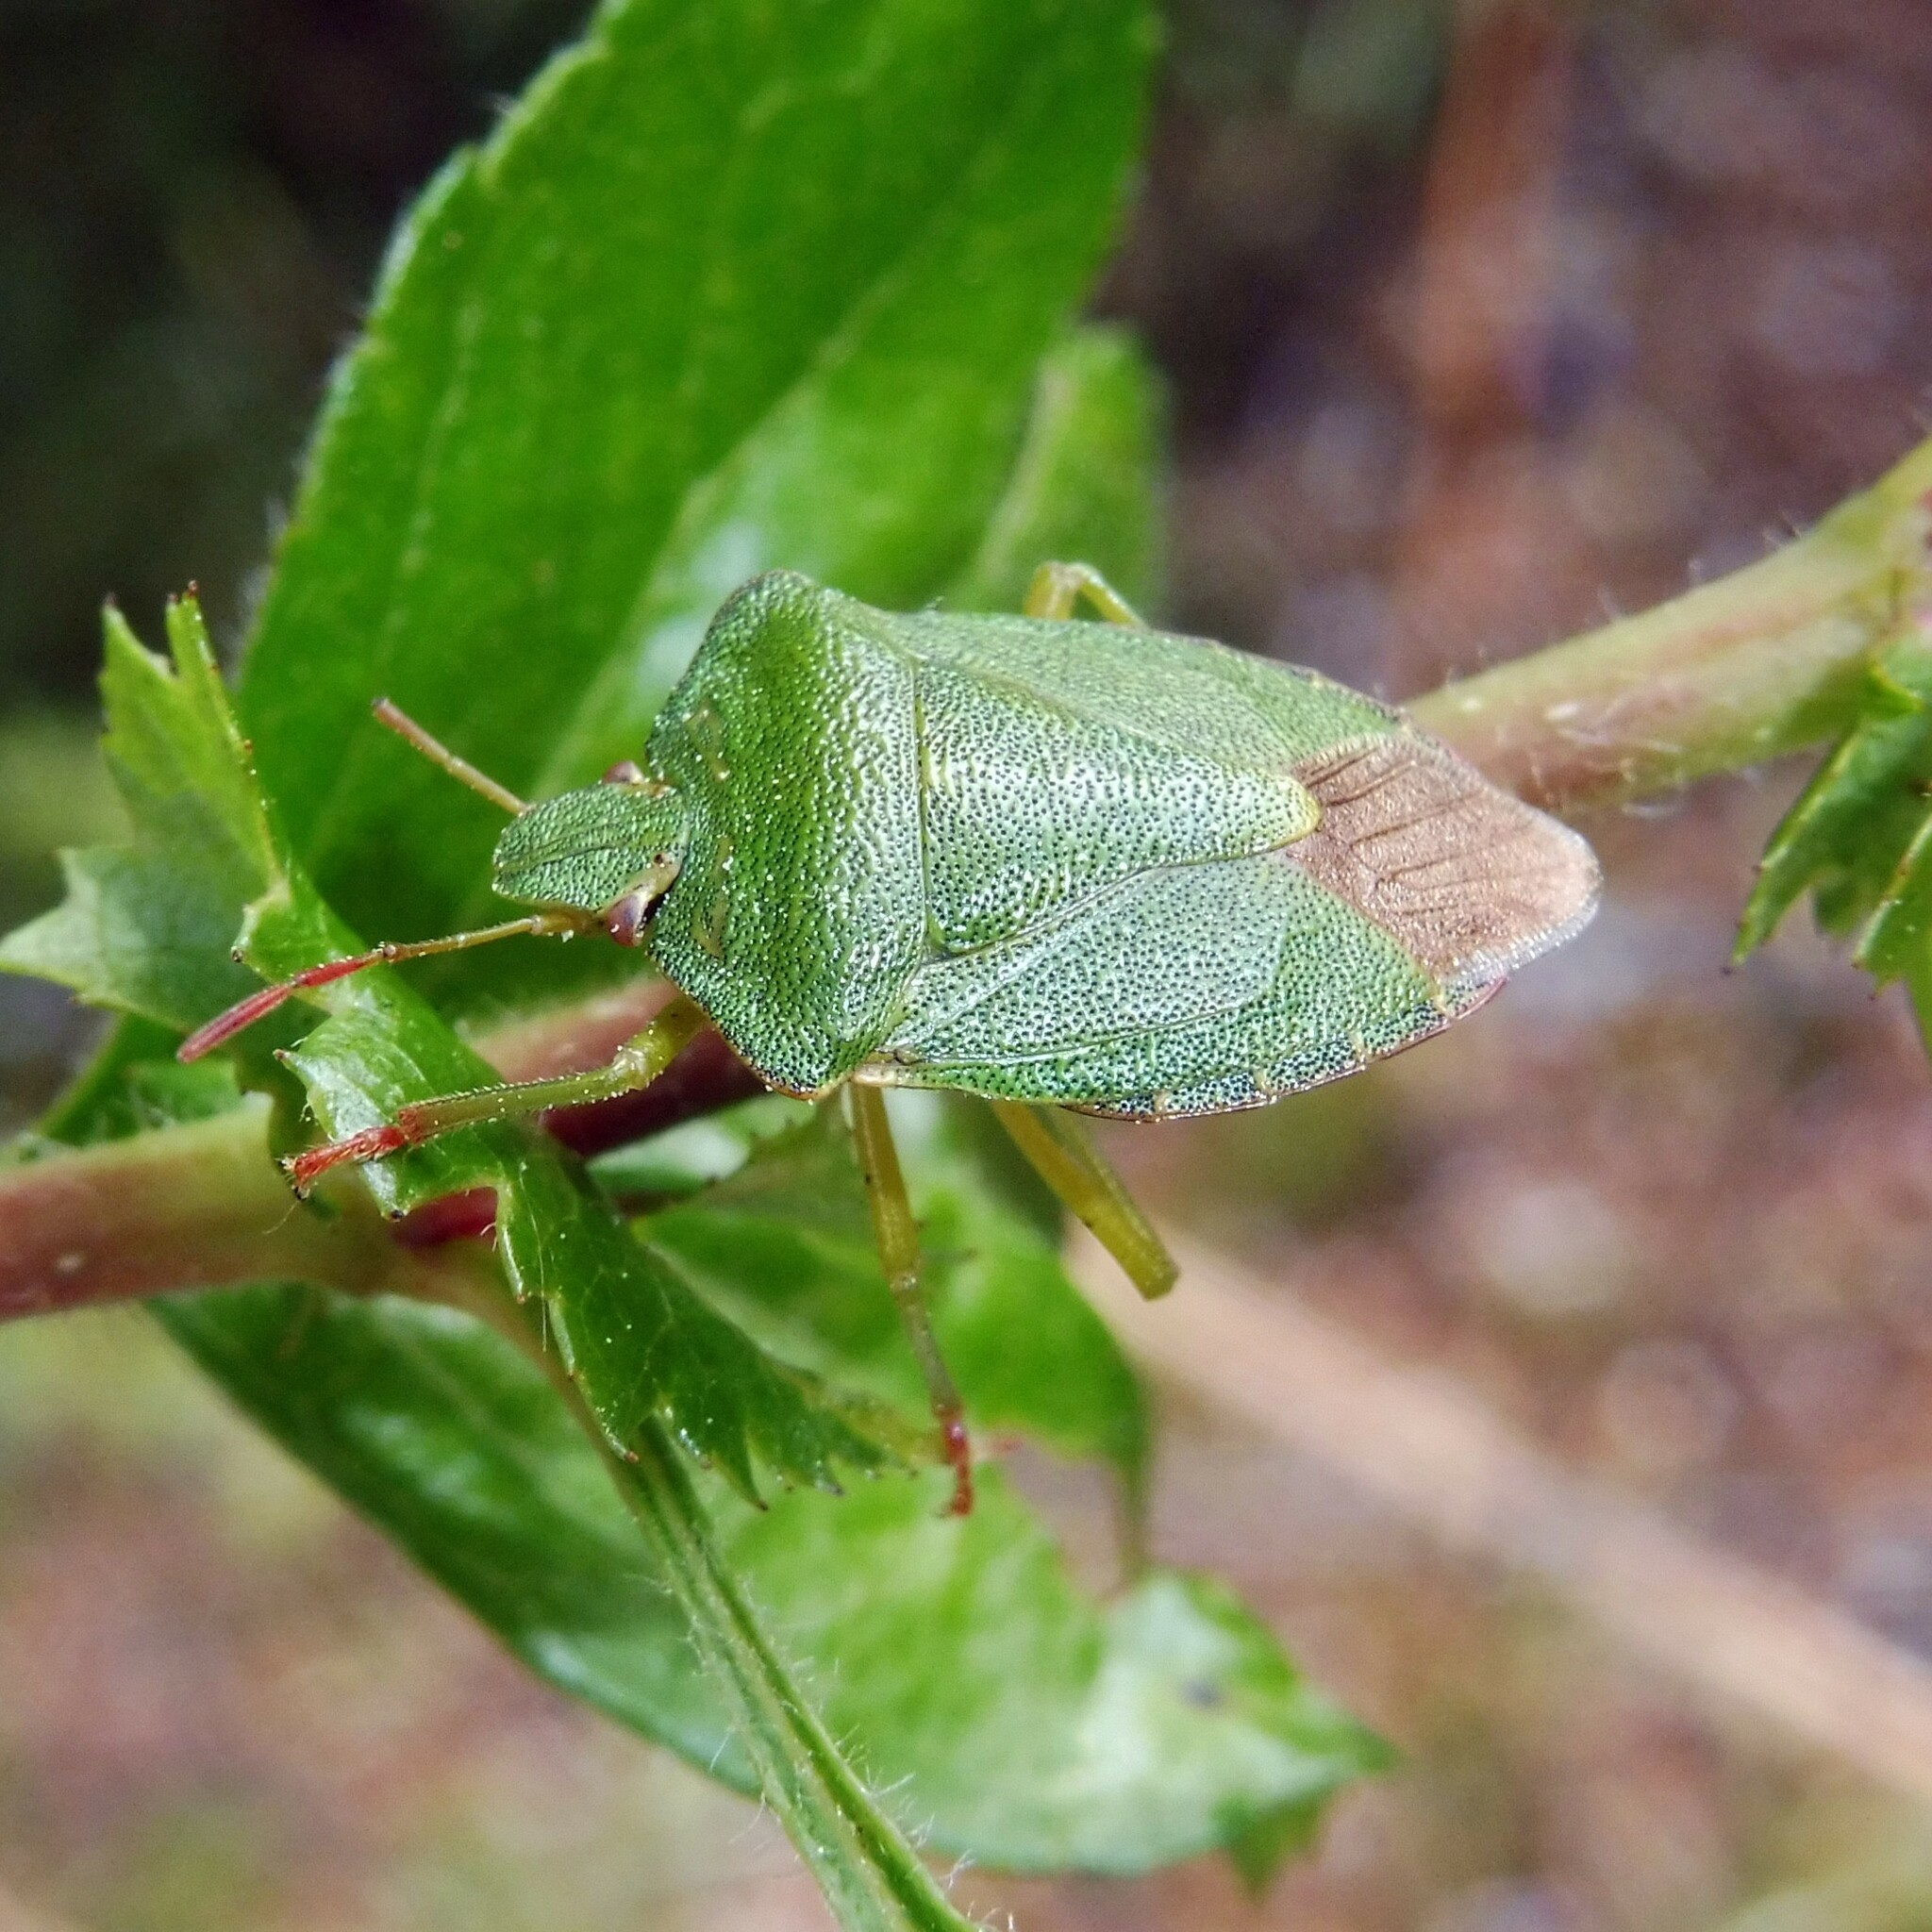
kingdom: Animalia
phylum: Arthropoda
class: Insecta
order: Hemiptera
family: Pentatomidae
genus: Palomena
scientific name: Palomena prasina
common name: Green shieldbug
